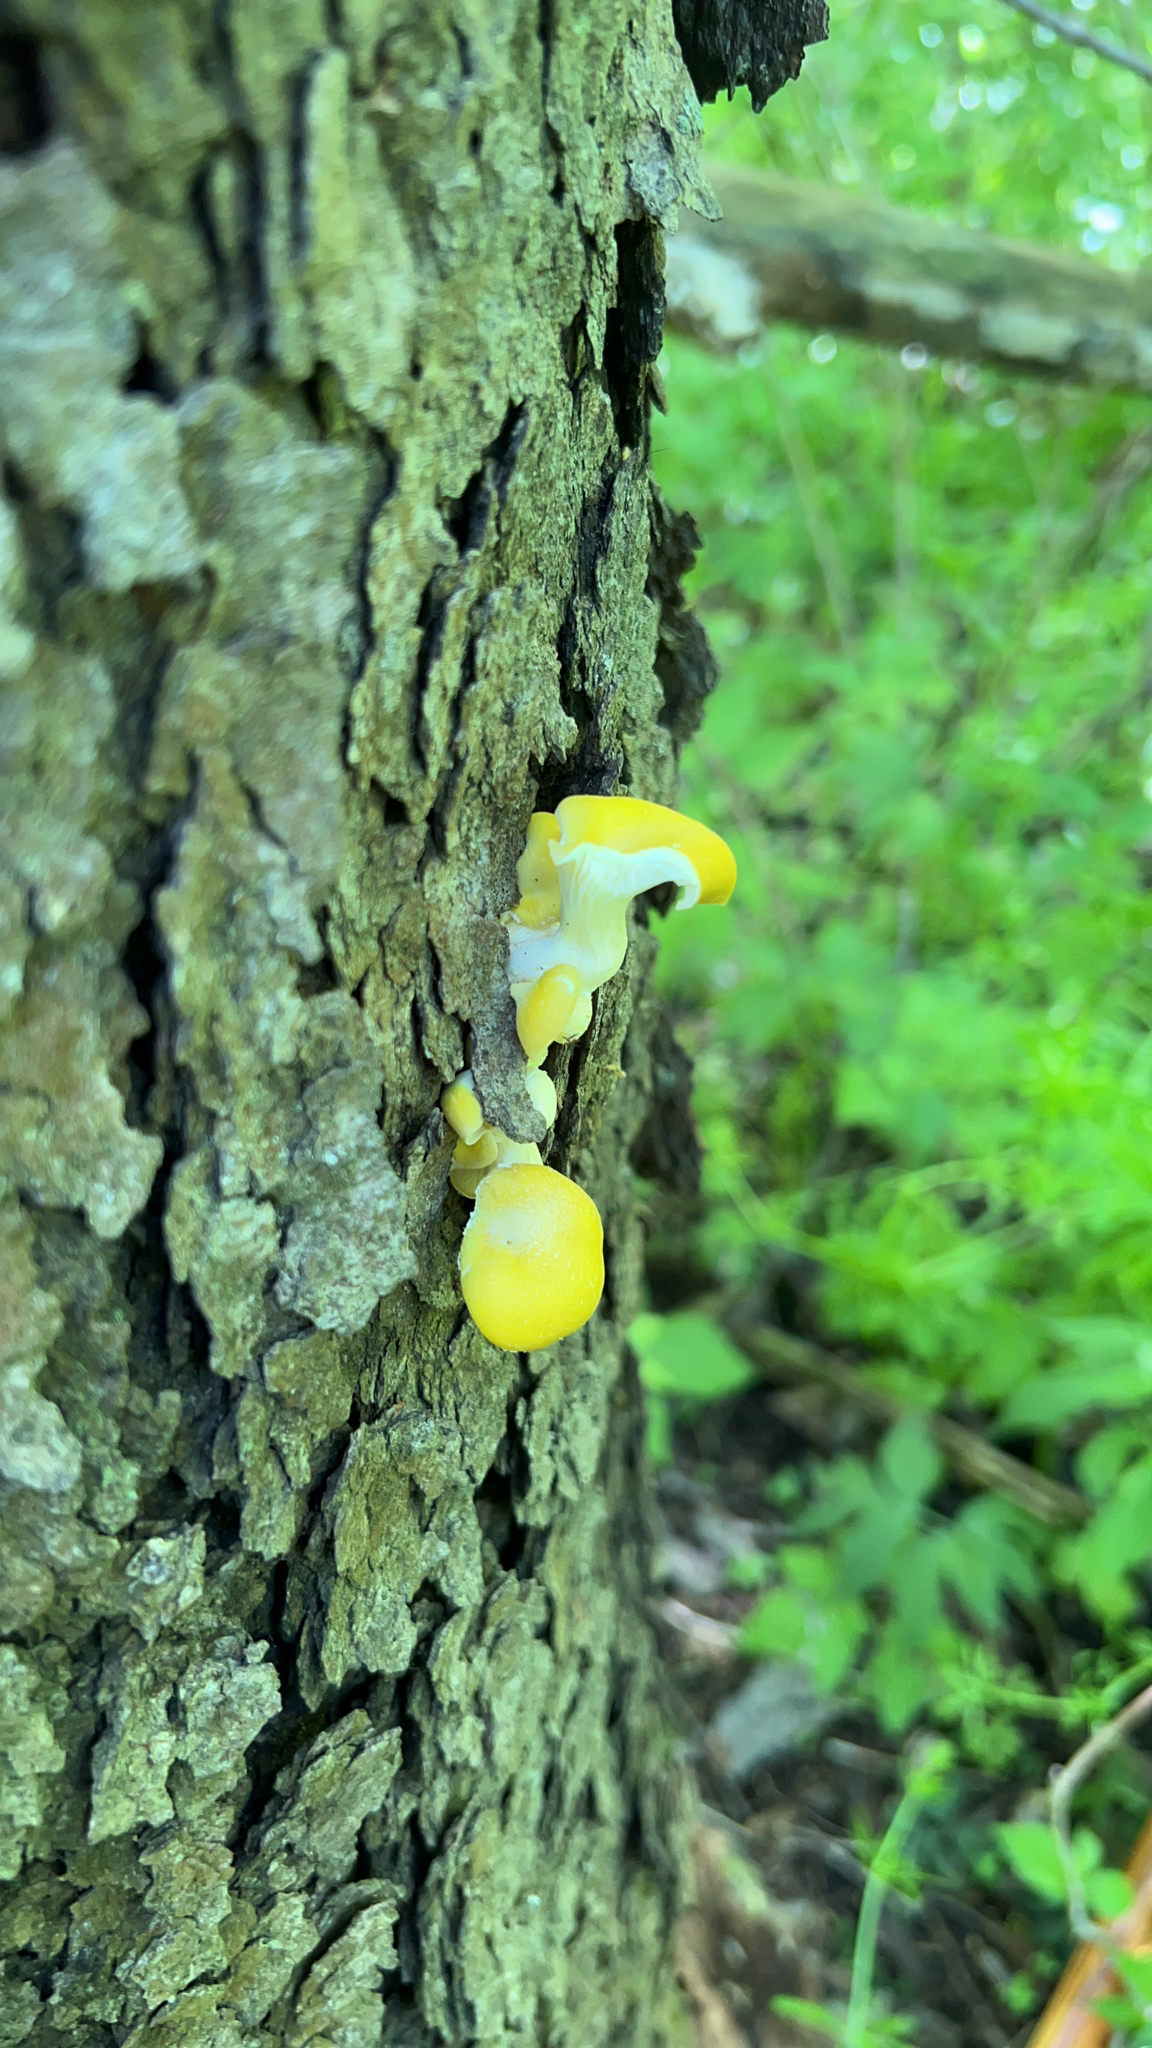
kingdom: Fungi
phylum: Basidiomycota
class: Agaricomycetes
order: Agaricales
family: Pleurotaceae
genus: Pleurotus
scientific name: Pleurotus citrinopileatus
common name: Golden oyster mushroom
